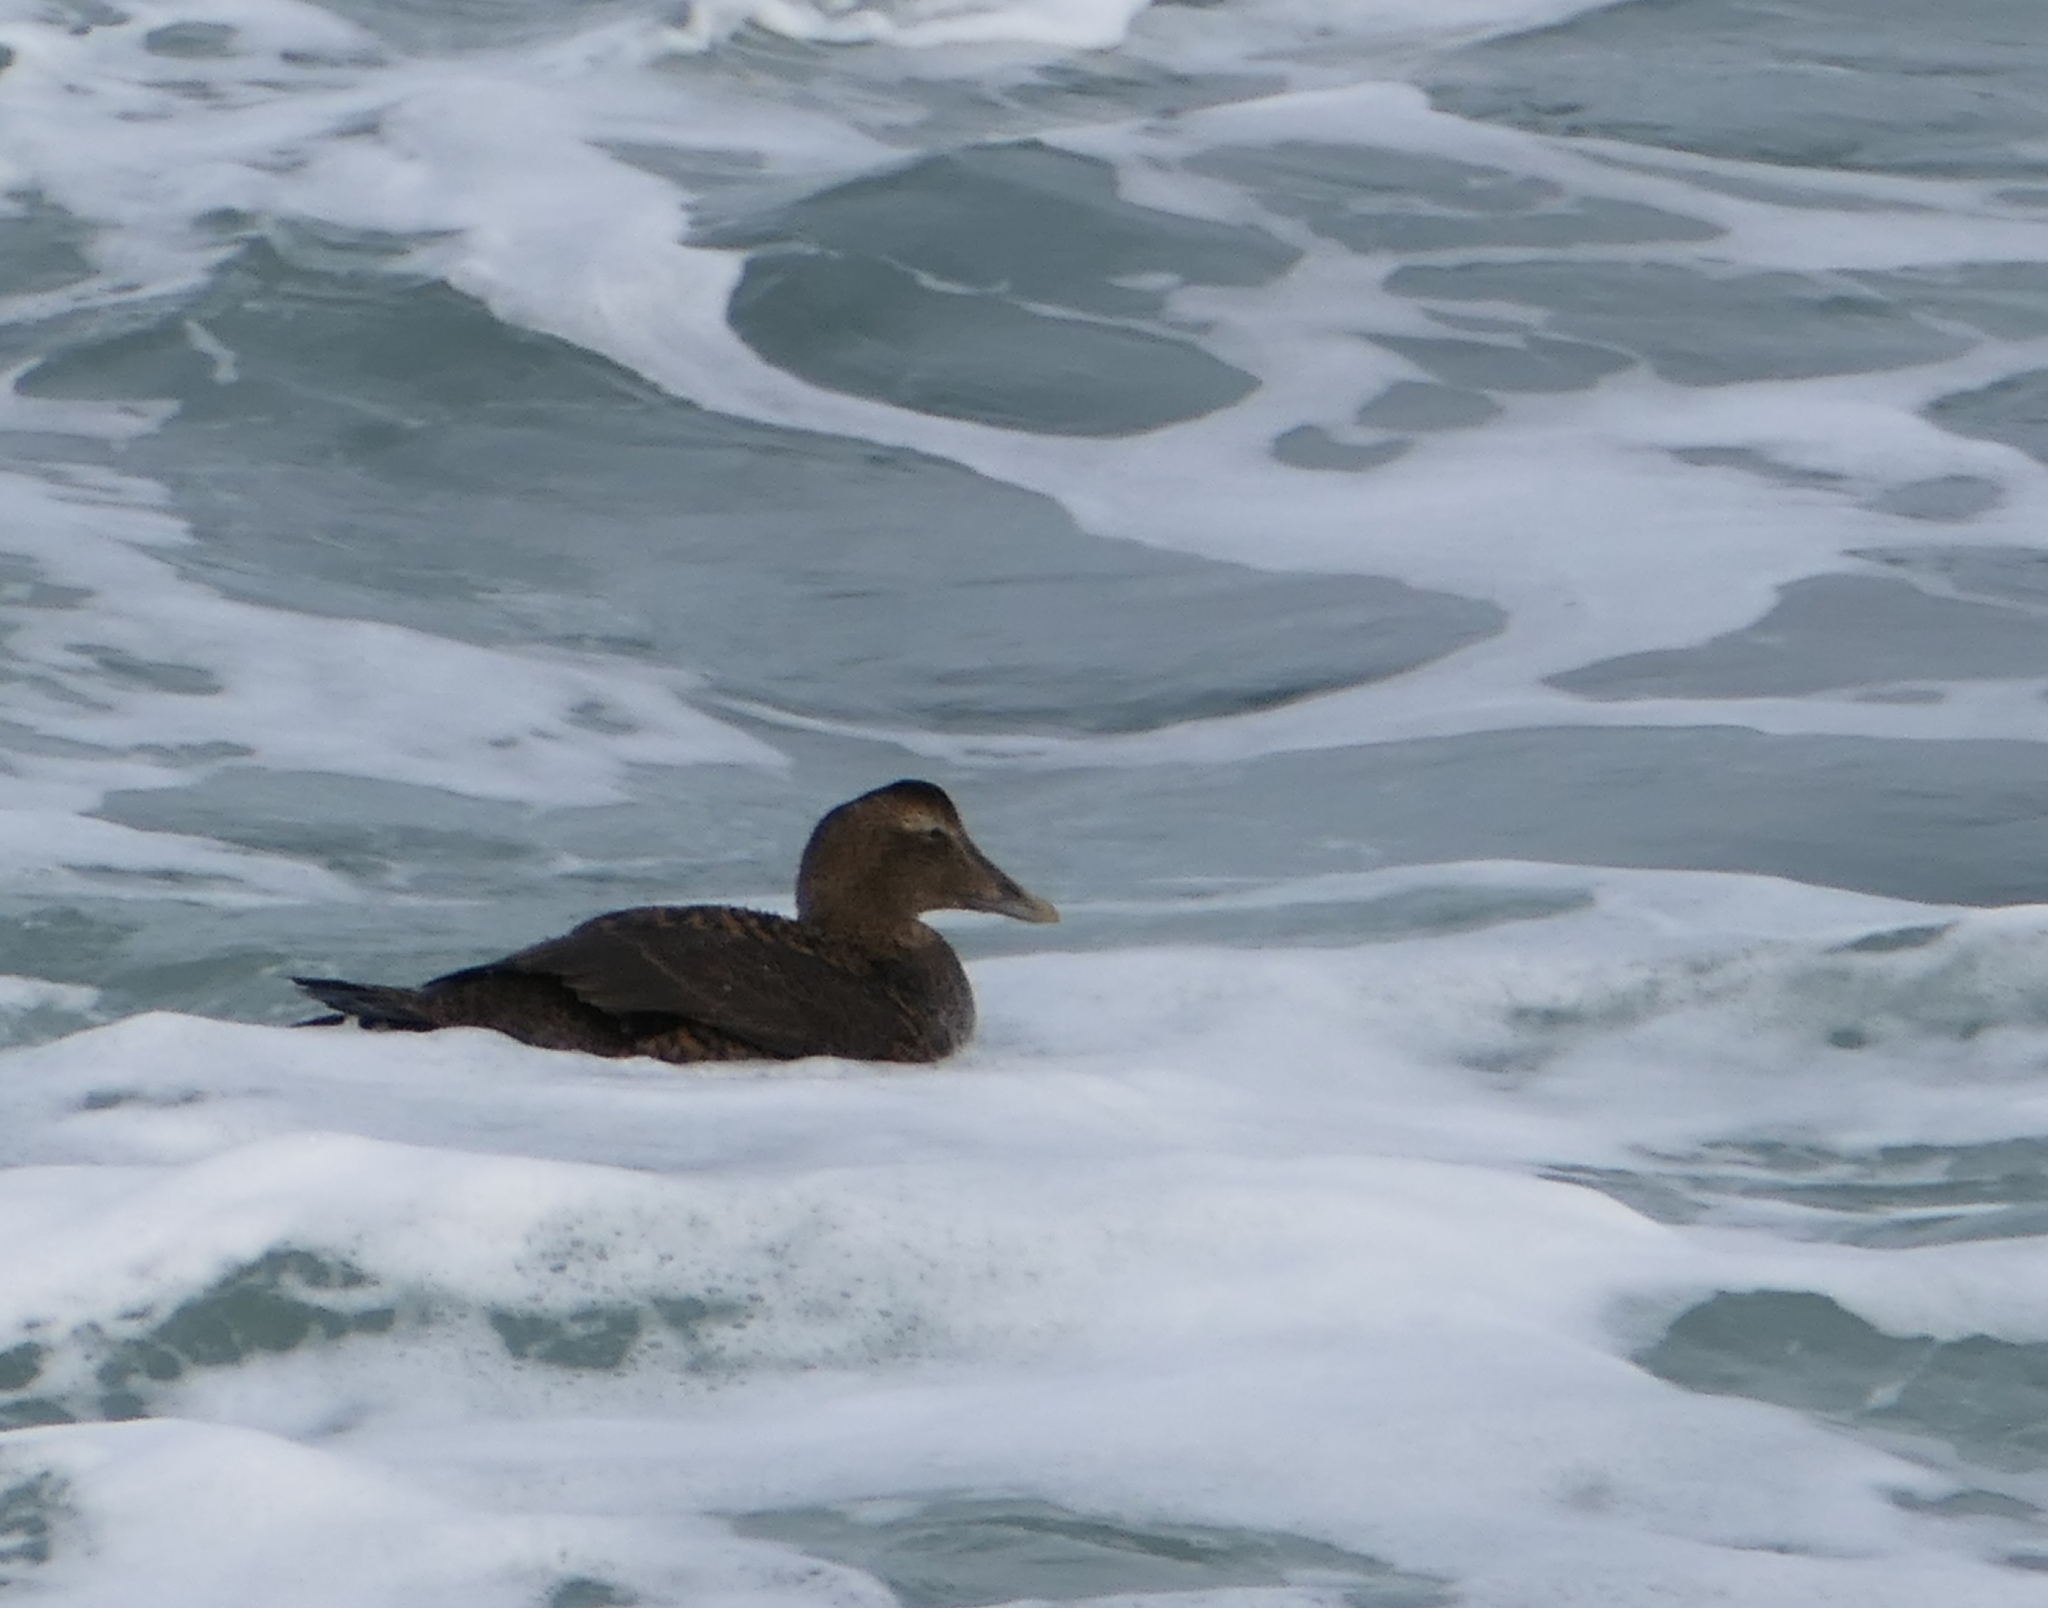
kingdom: Animalia
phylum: Chordata
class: Aves
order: Anseriformes
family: Anatidae
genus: Somateria
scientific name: Somateria mollissima
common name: Common eider
